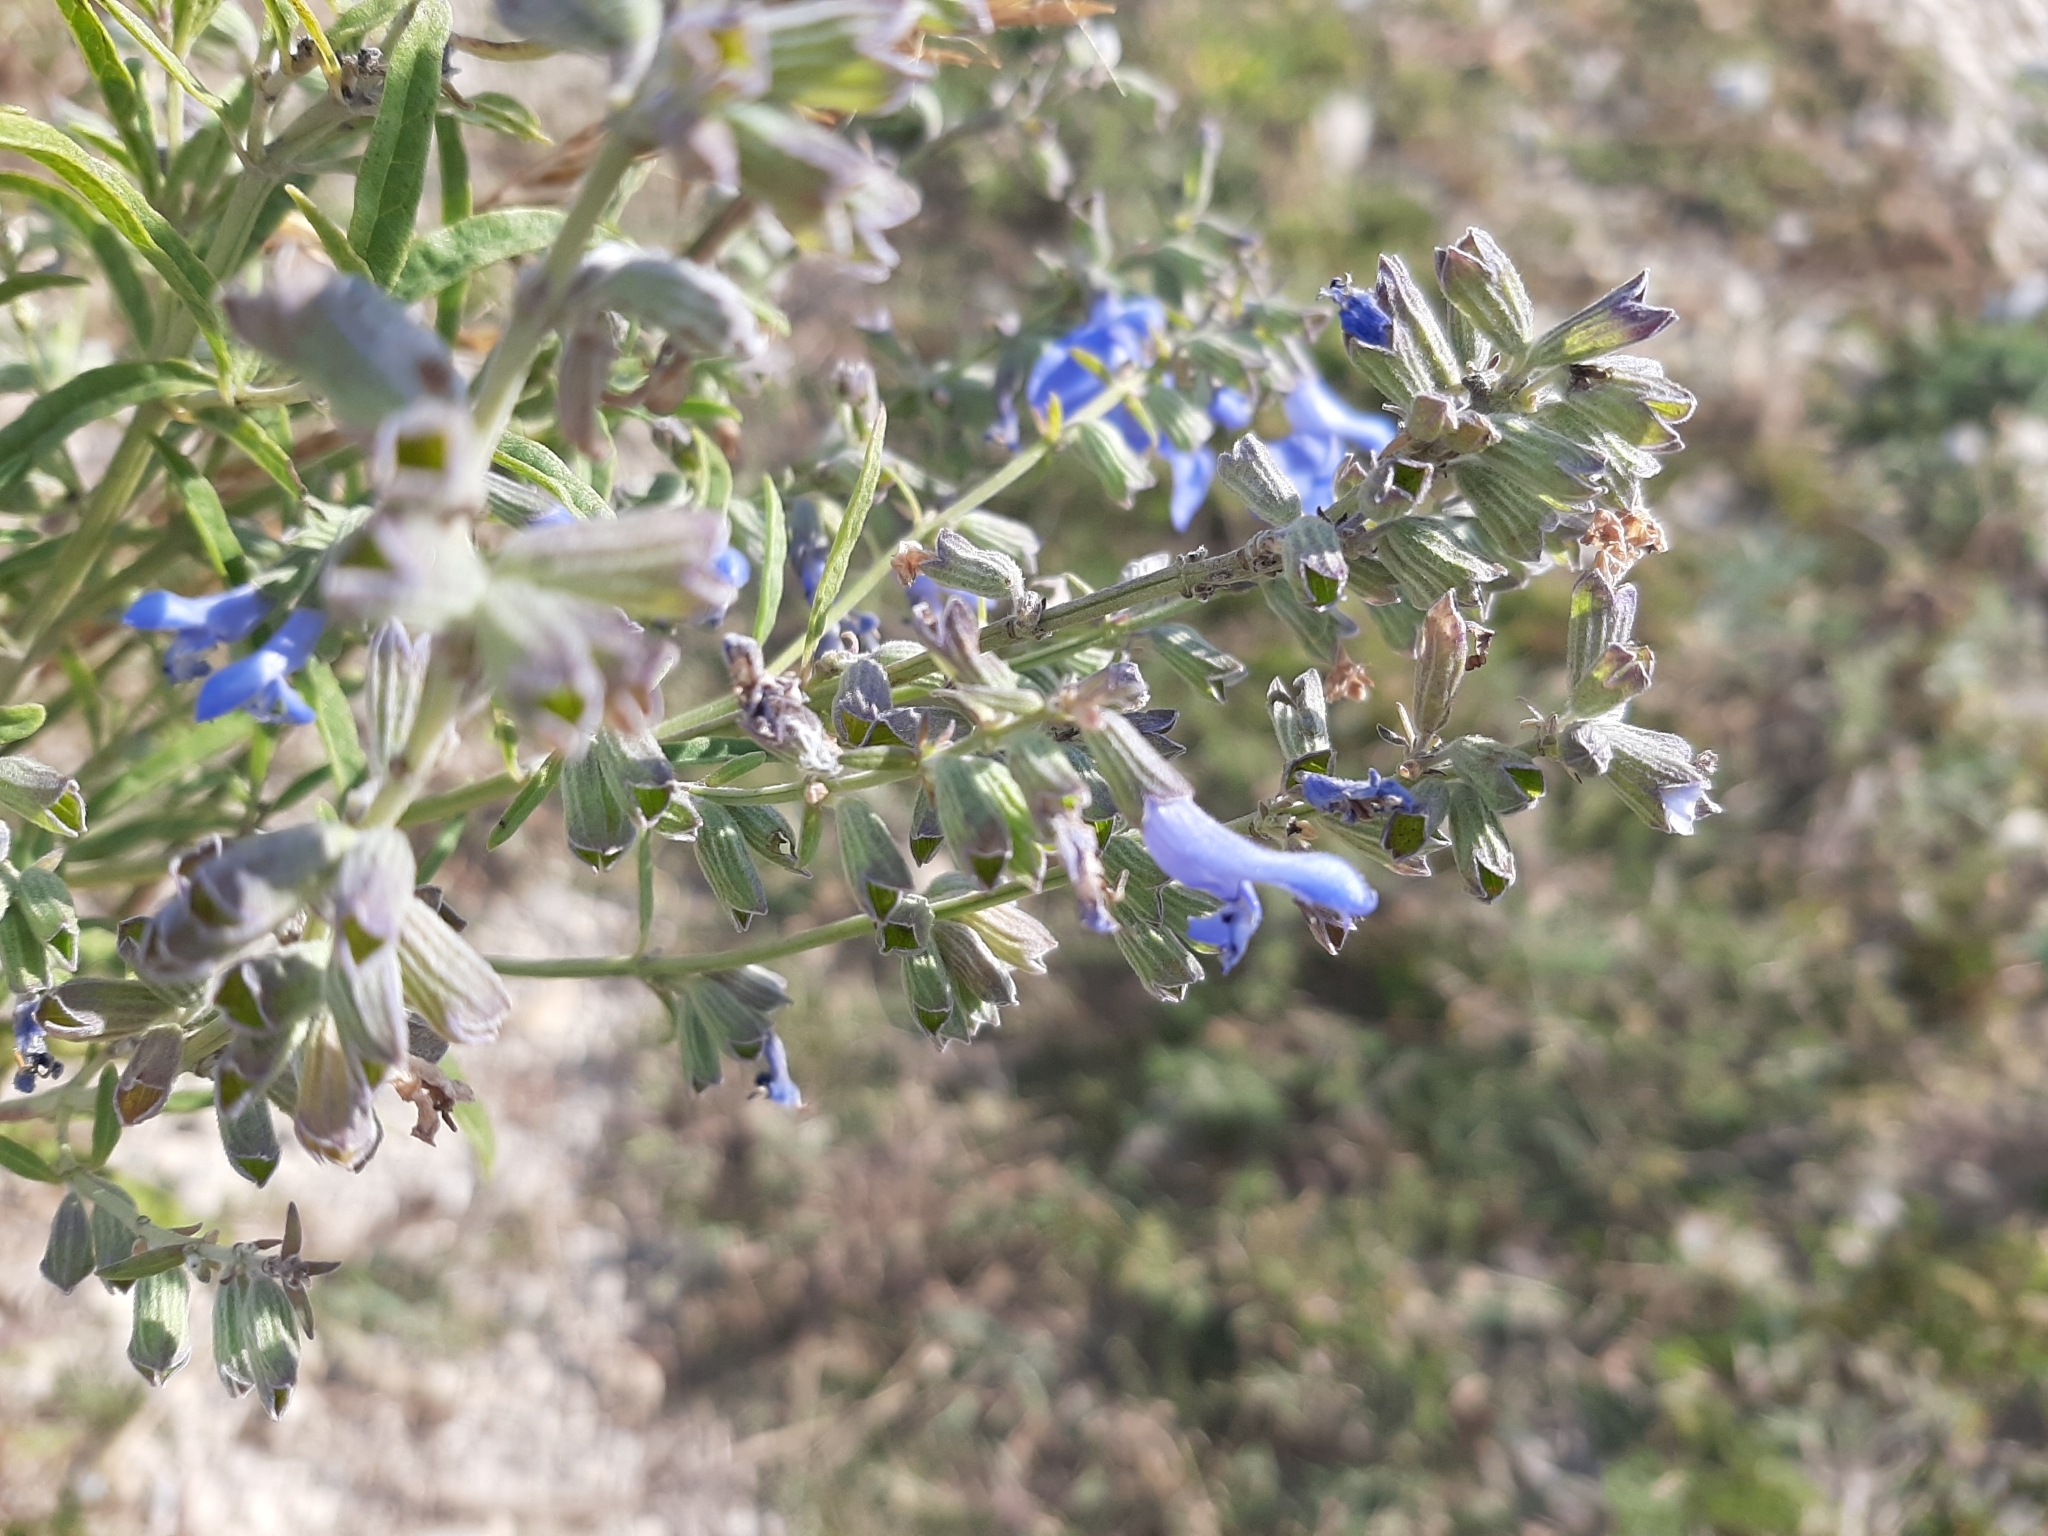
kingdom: Plantae
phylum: Tracheophyta
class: Magnoliopsida
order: Lamiales
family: Lamiaceae
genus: Salvia
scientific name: Salvia azurea
